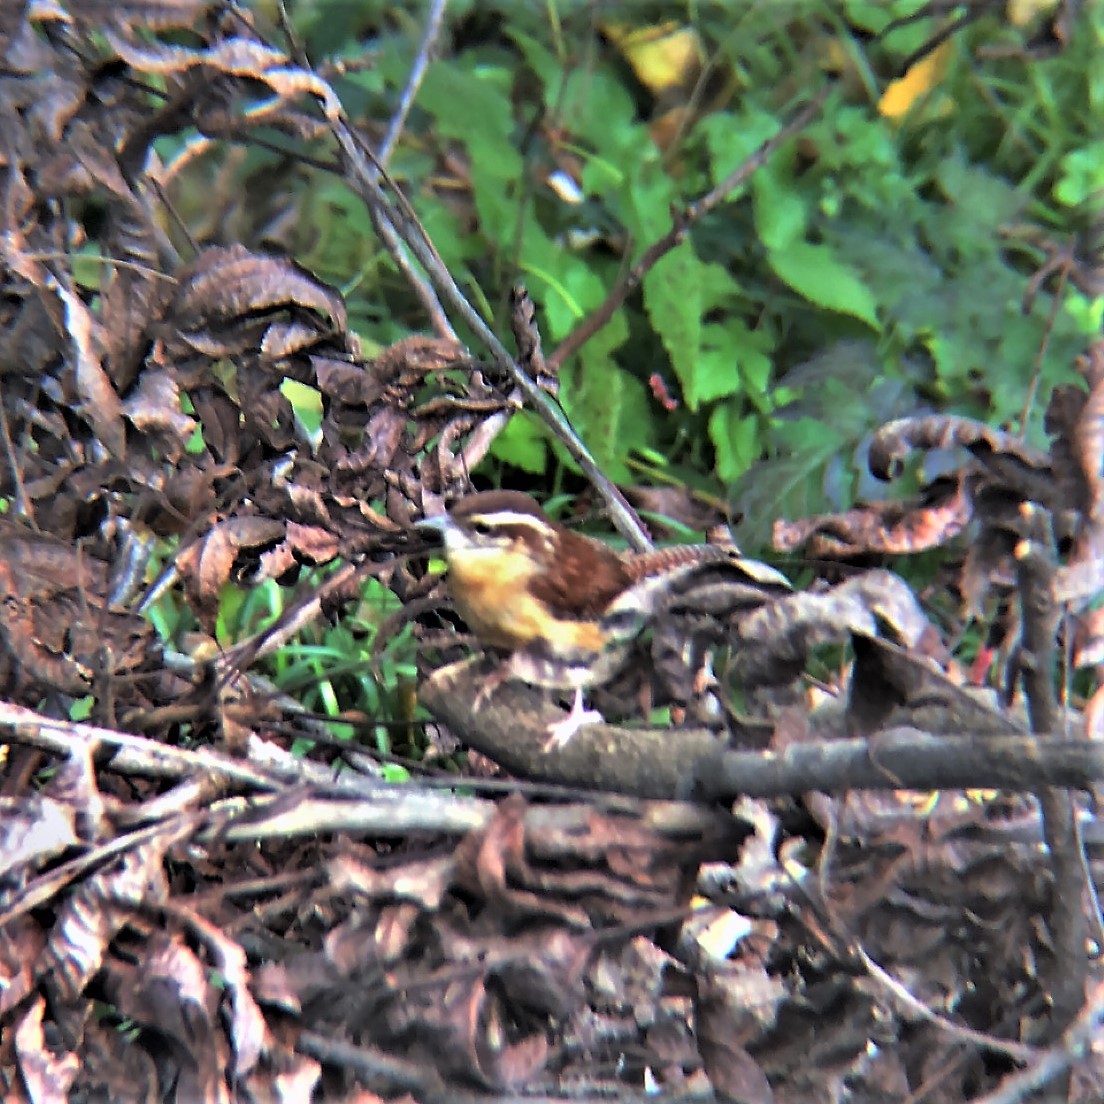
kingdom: Animalia
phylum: Chordata
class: Aves
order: Passeriformes
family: Troglodytidae
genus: Thryothorus
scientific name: Thryothorus ludovicianus
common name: Carolina wren
